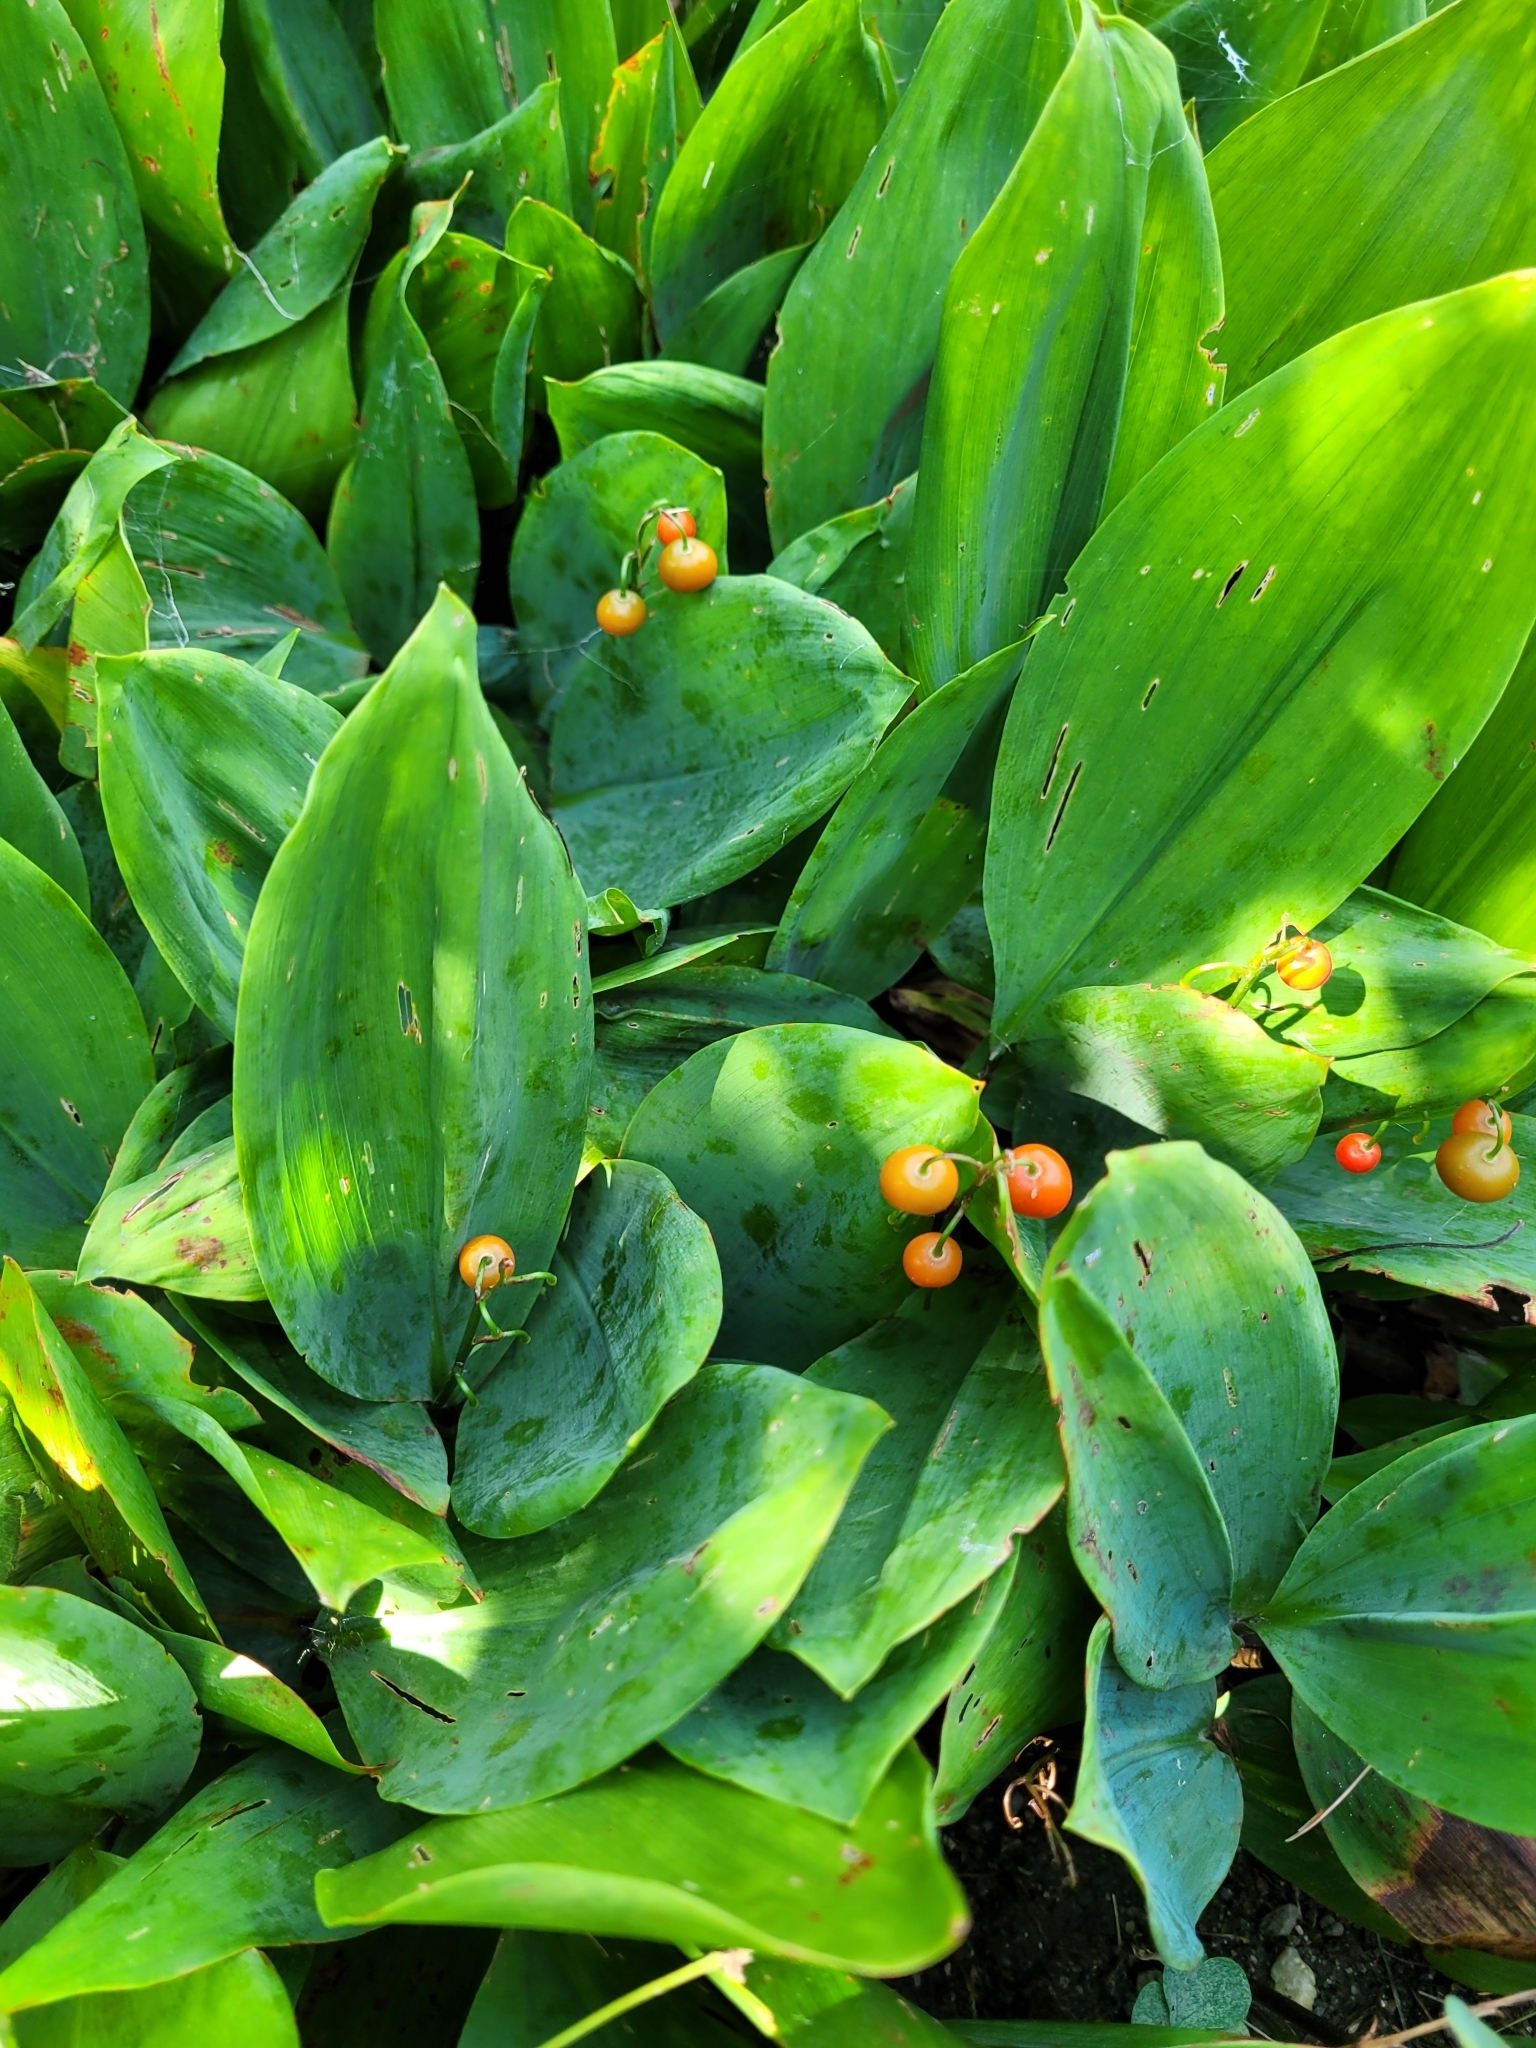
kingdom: Plantae
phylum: Tracheophyta
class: Liliopsida
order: Asparagales
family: Asparagaceae
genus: Convallaria
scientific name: Convallaria majalis
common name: Lily-of-the-valley
